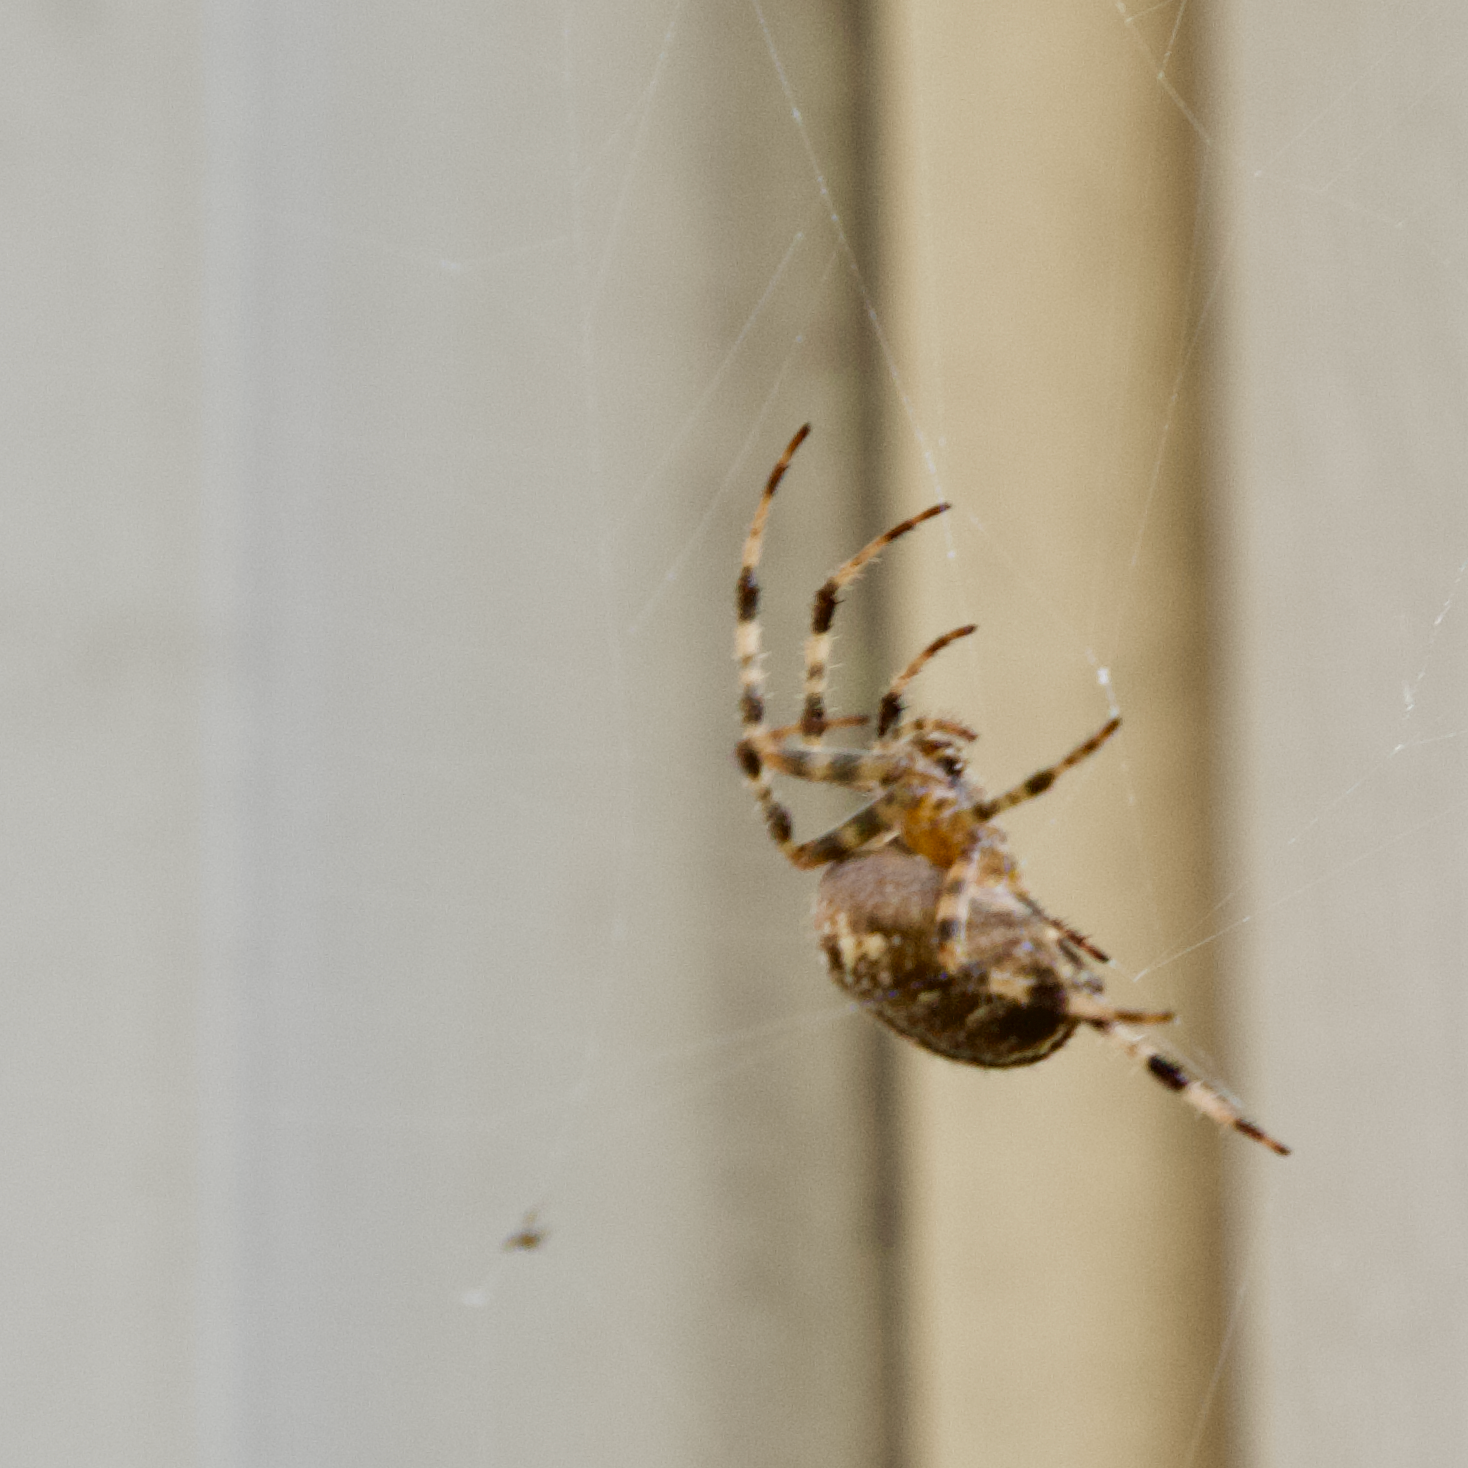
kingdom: Animalia
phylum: Arthropoda
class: Arachnida
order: Araneae
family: Araneidae
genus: Araneus
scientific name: Araneus diadematus
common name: Cross orbweaver
